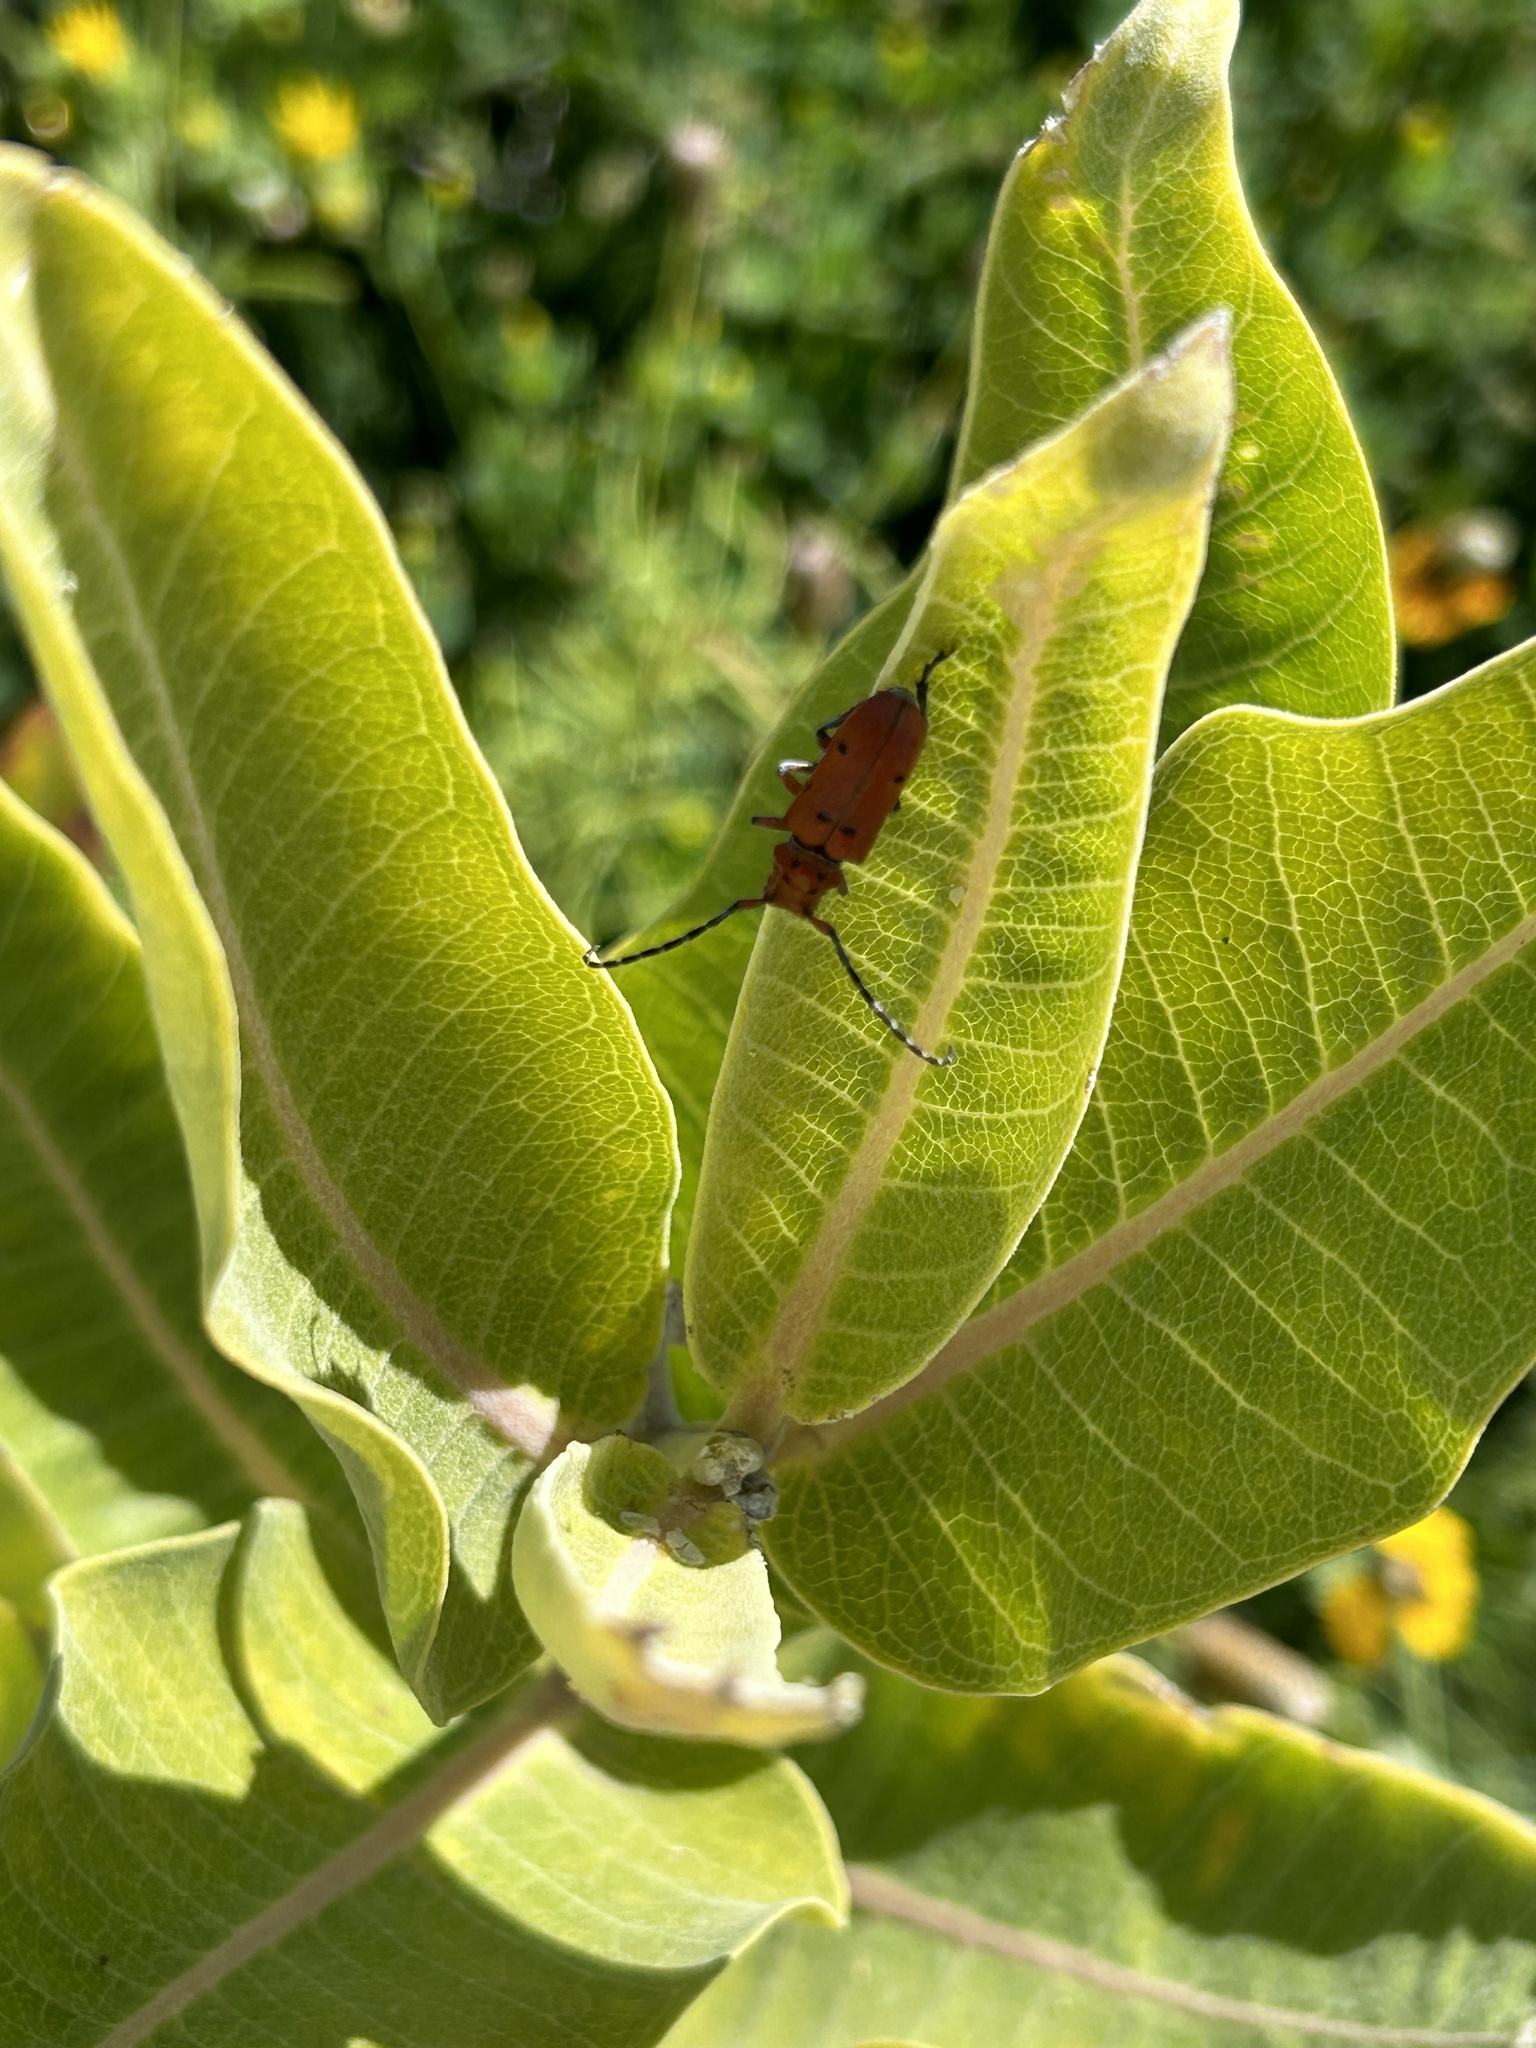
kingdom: Animalia
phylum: Arthropoda
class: Insecta
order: Coleoptera
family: Cerambycidae
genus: Tetraopes
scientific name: Tetraopes femoratus
